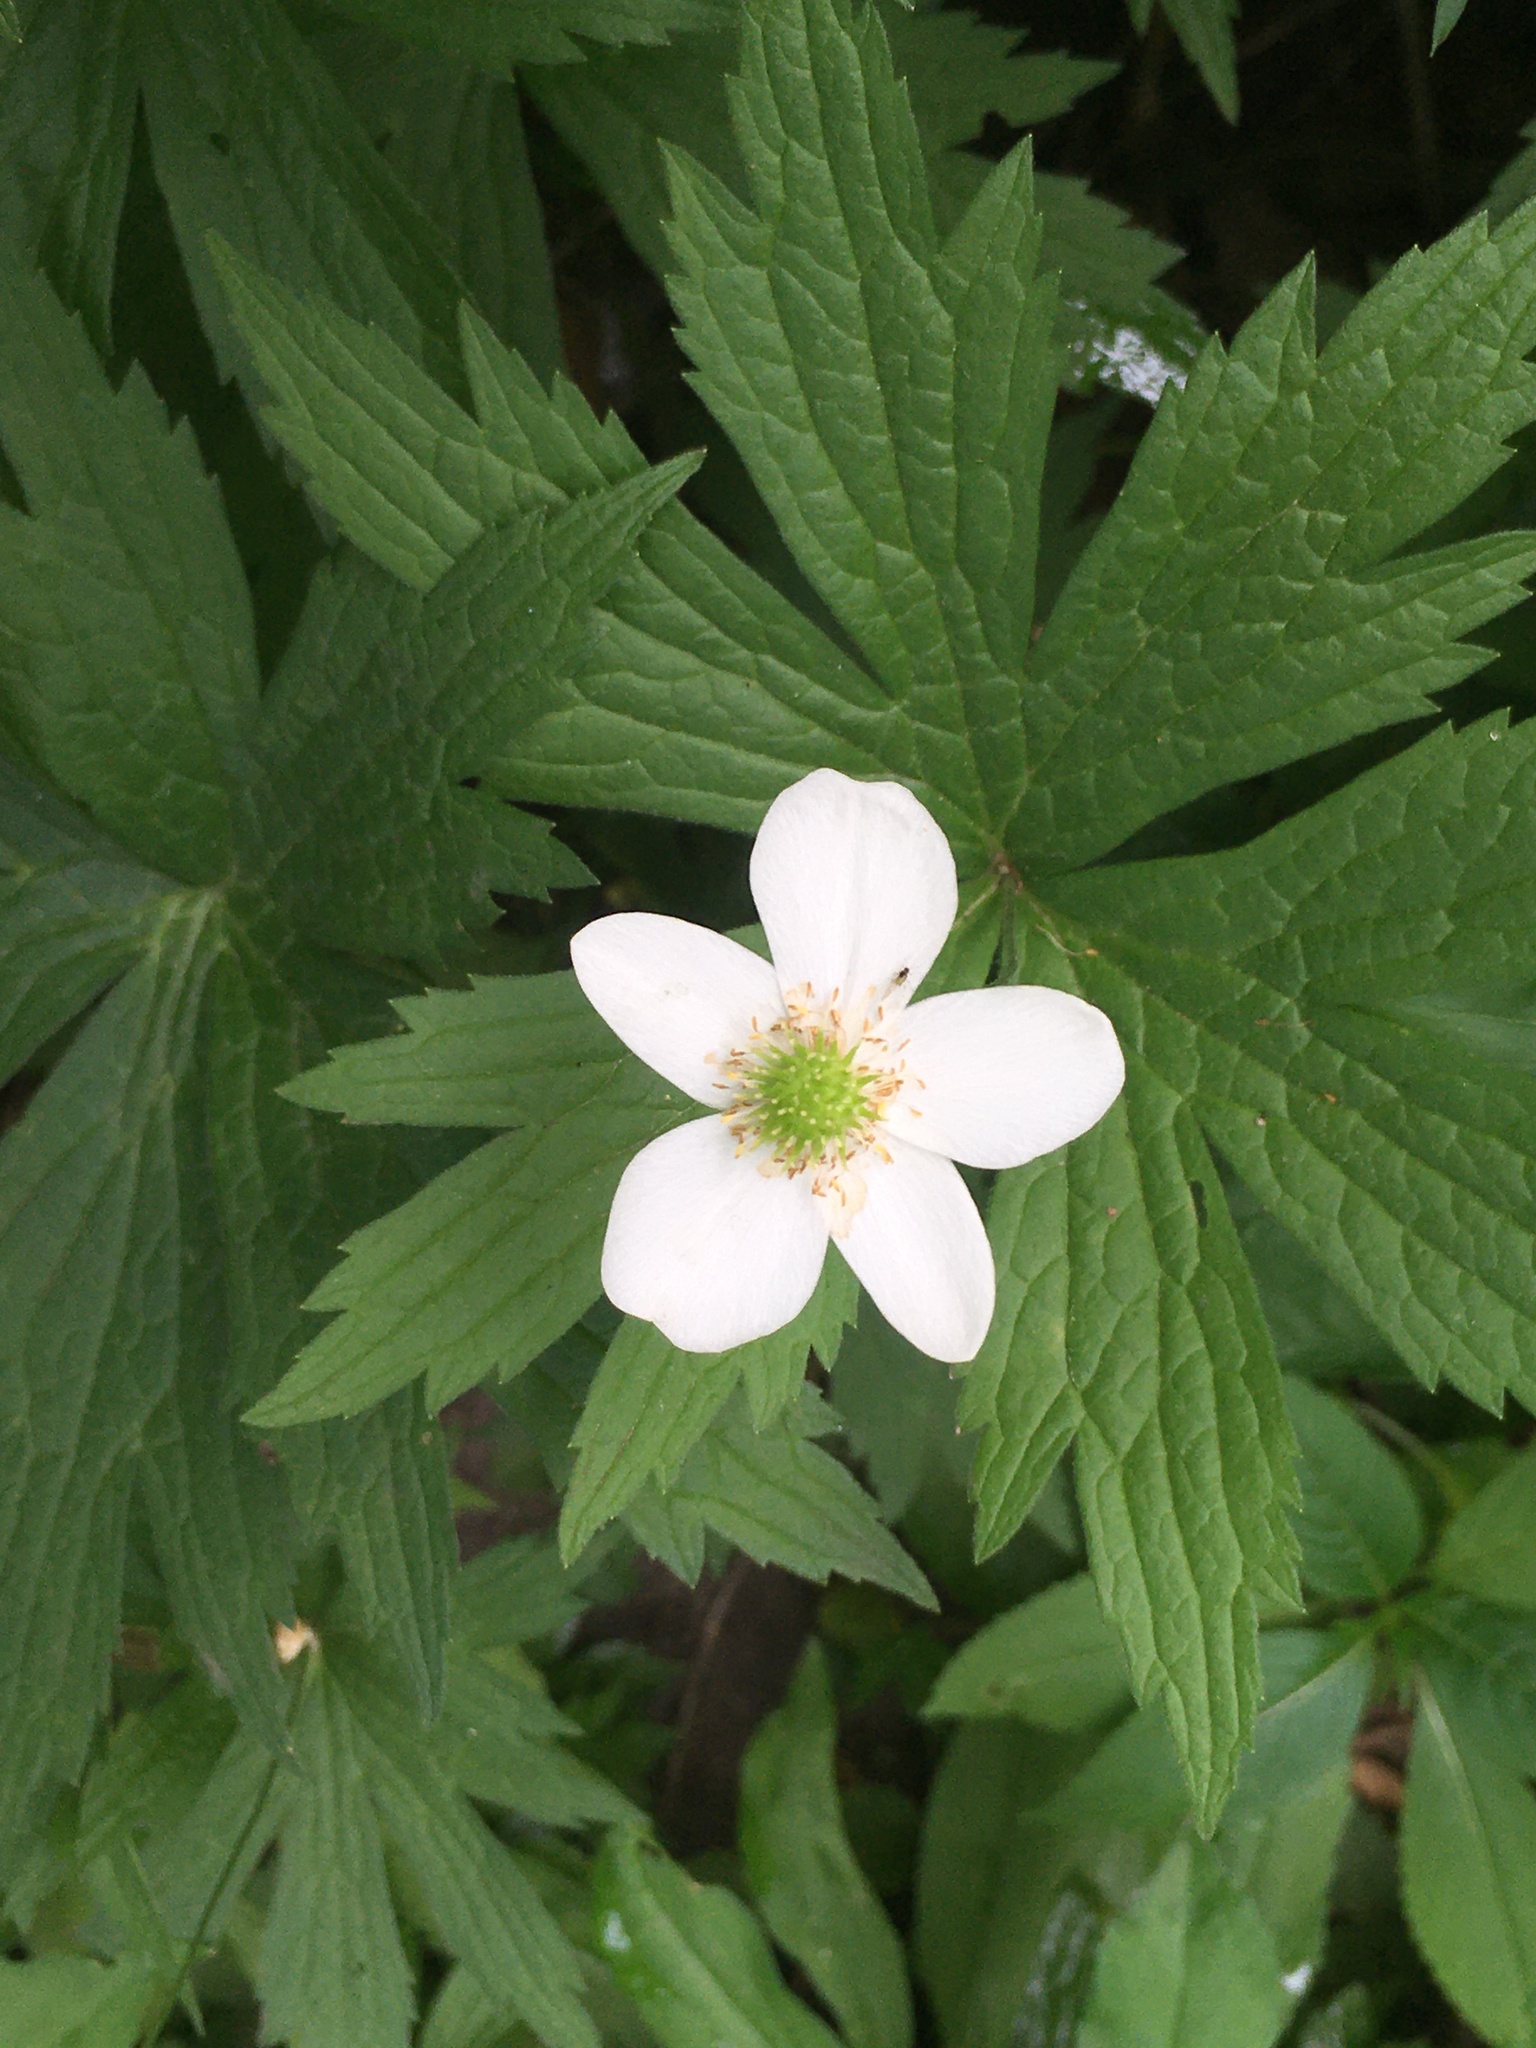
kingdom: Plantae
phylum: Tracheophyta
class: Magnoliopsida
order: Ranunculales
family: Ranunculaceae
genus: Anemonastrum
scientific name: Anemonastrum canadense
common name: Canada anemone
